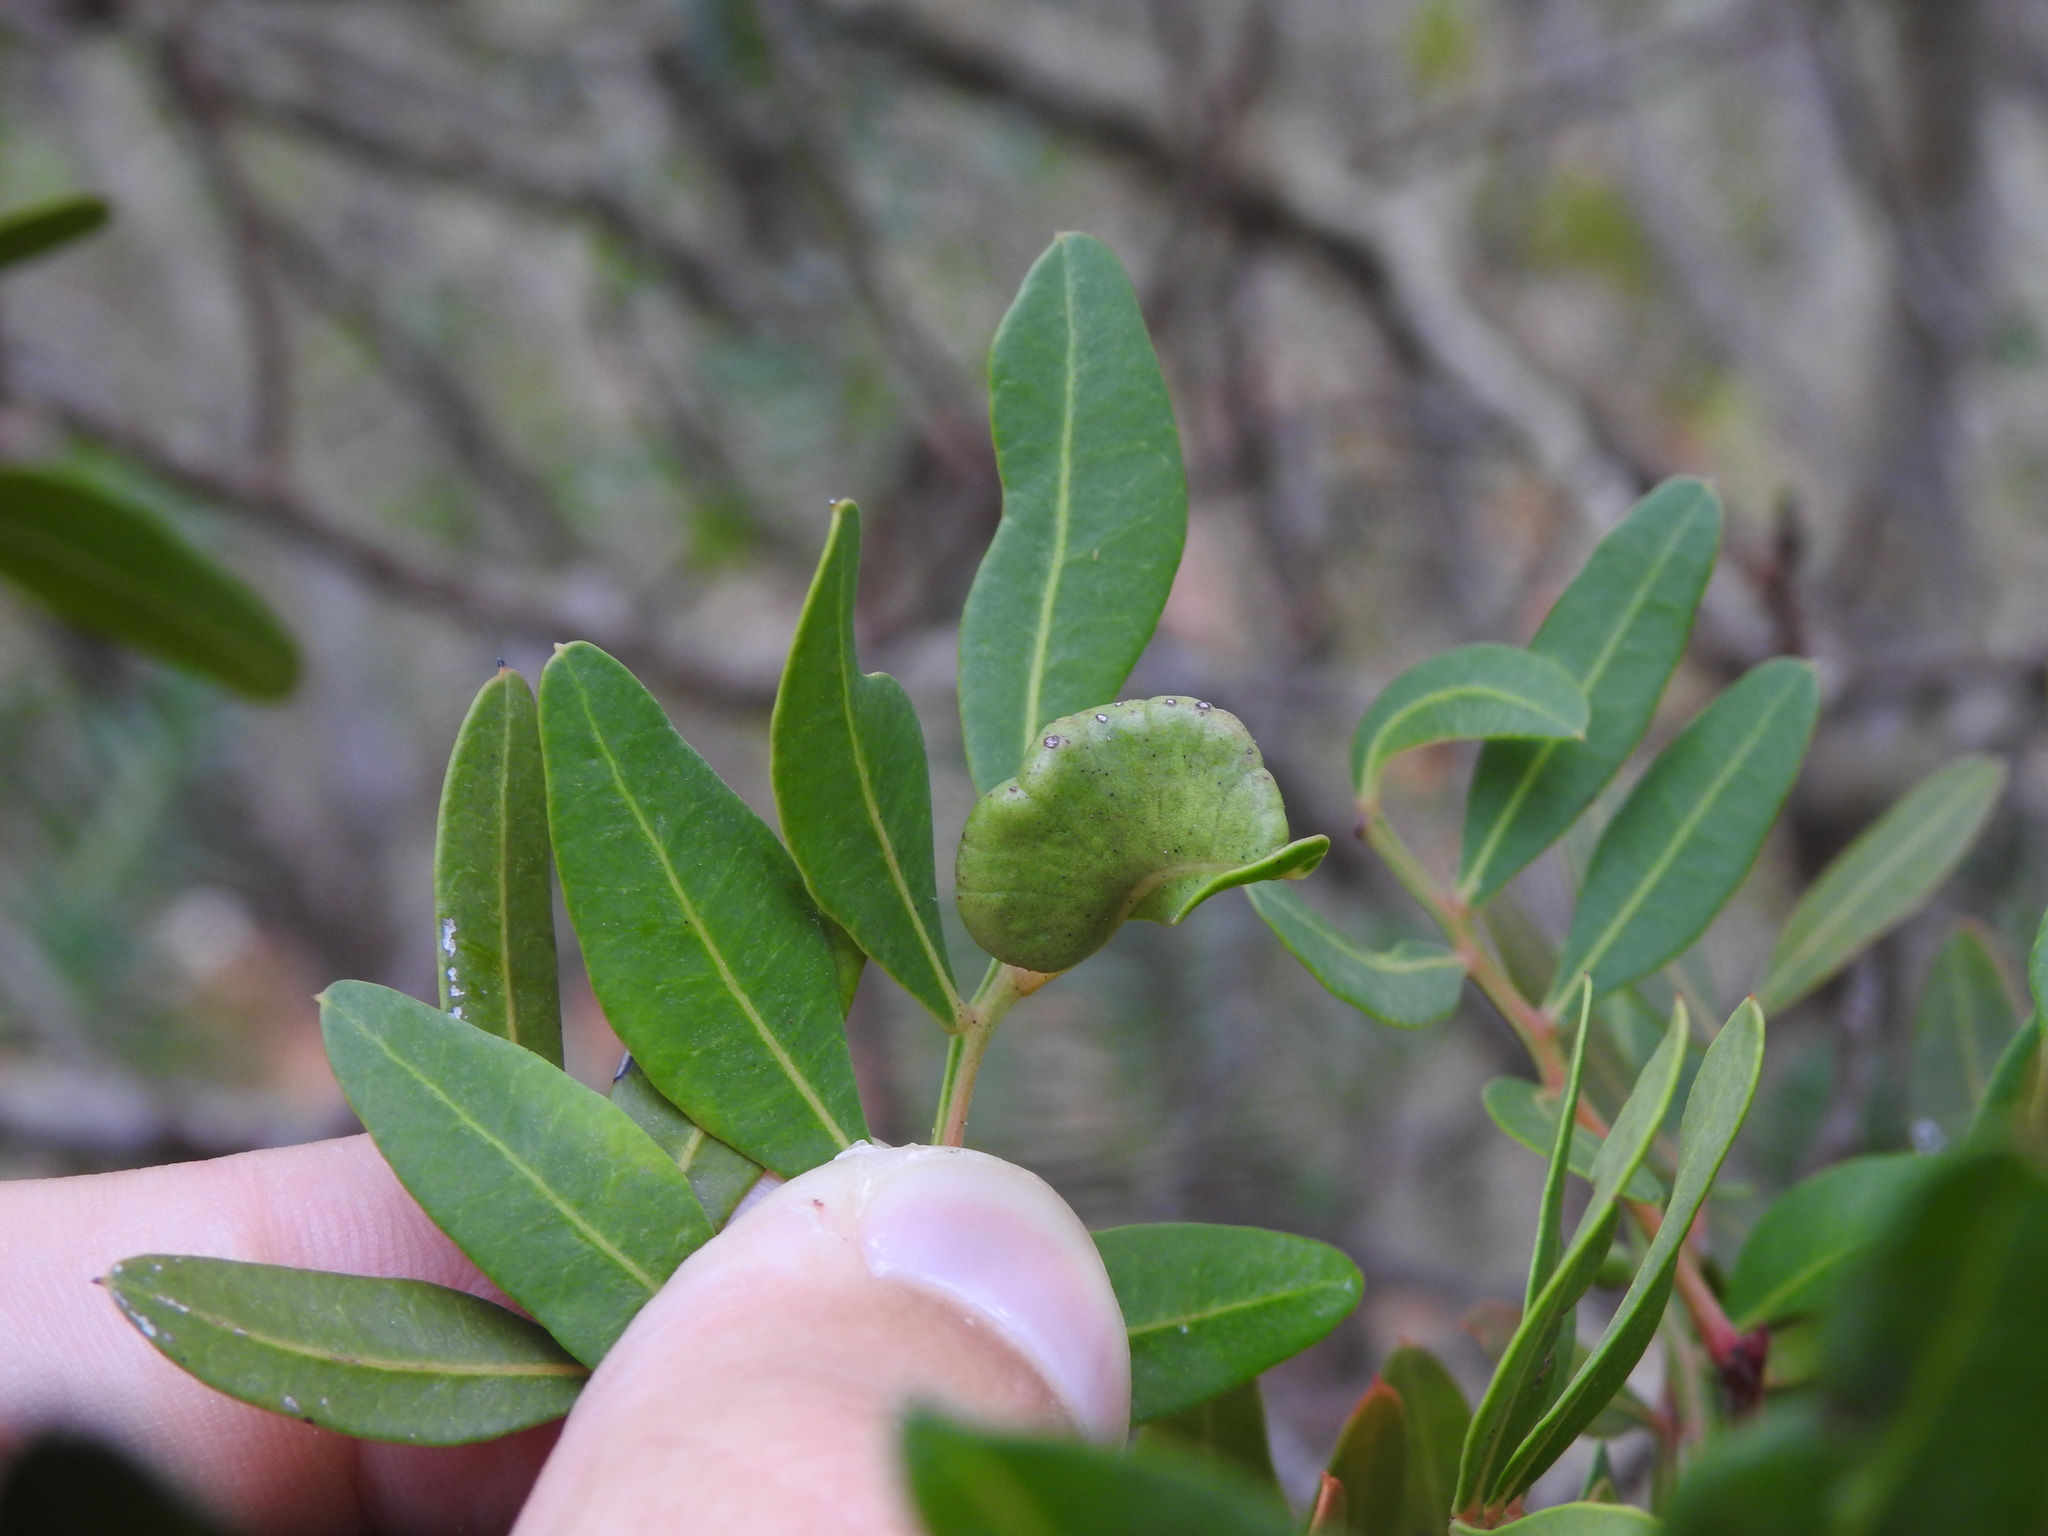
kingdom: Animalia
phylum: Arthropoda
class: Insecta
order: Hemiptera
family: Aphididae
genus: Aploneura
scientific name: Aploneura lentisci
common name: Mealy grass root aphid
